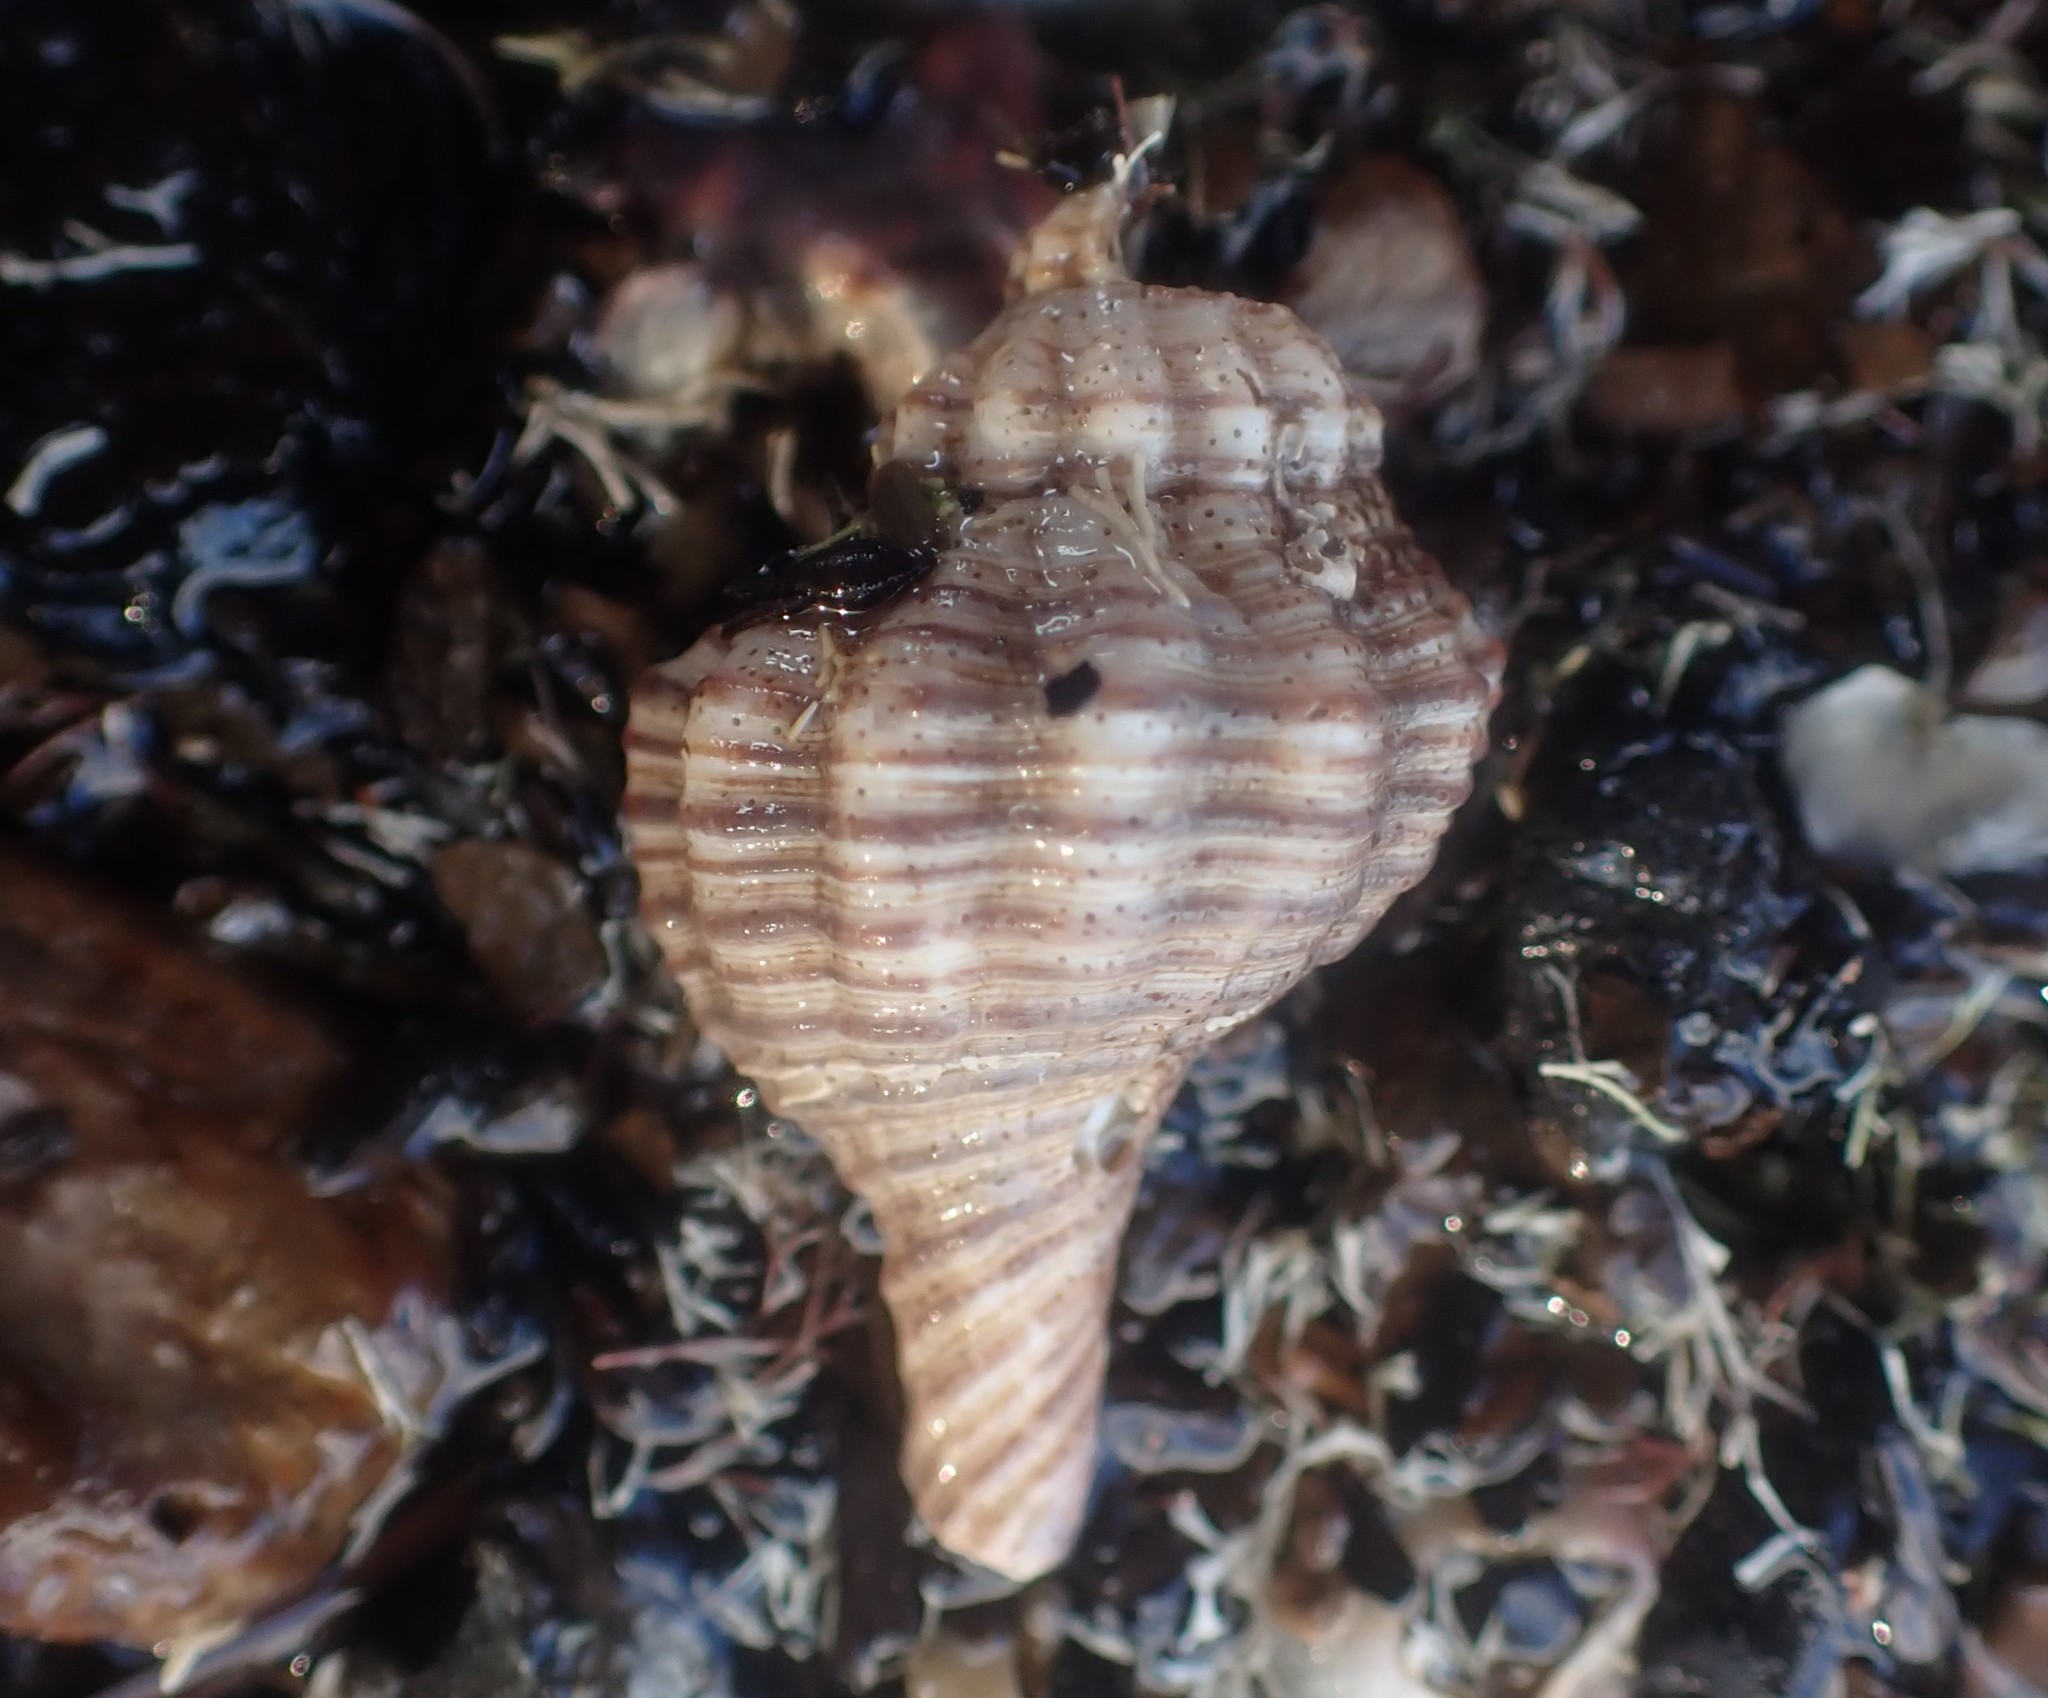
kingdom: Animalia
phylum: Mollusca
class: Gastropoda
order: Neogastropoda
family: Austrosiphonidae
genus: Penion
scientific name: Penion sulcatus
